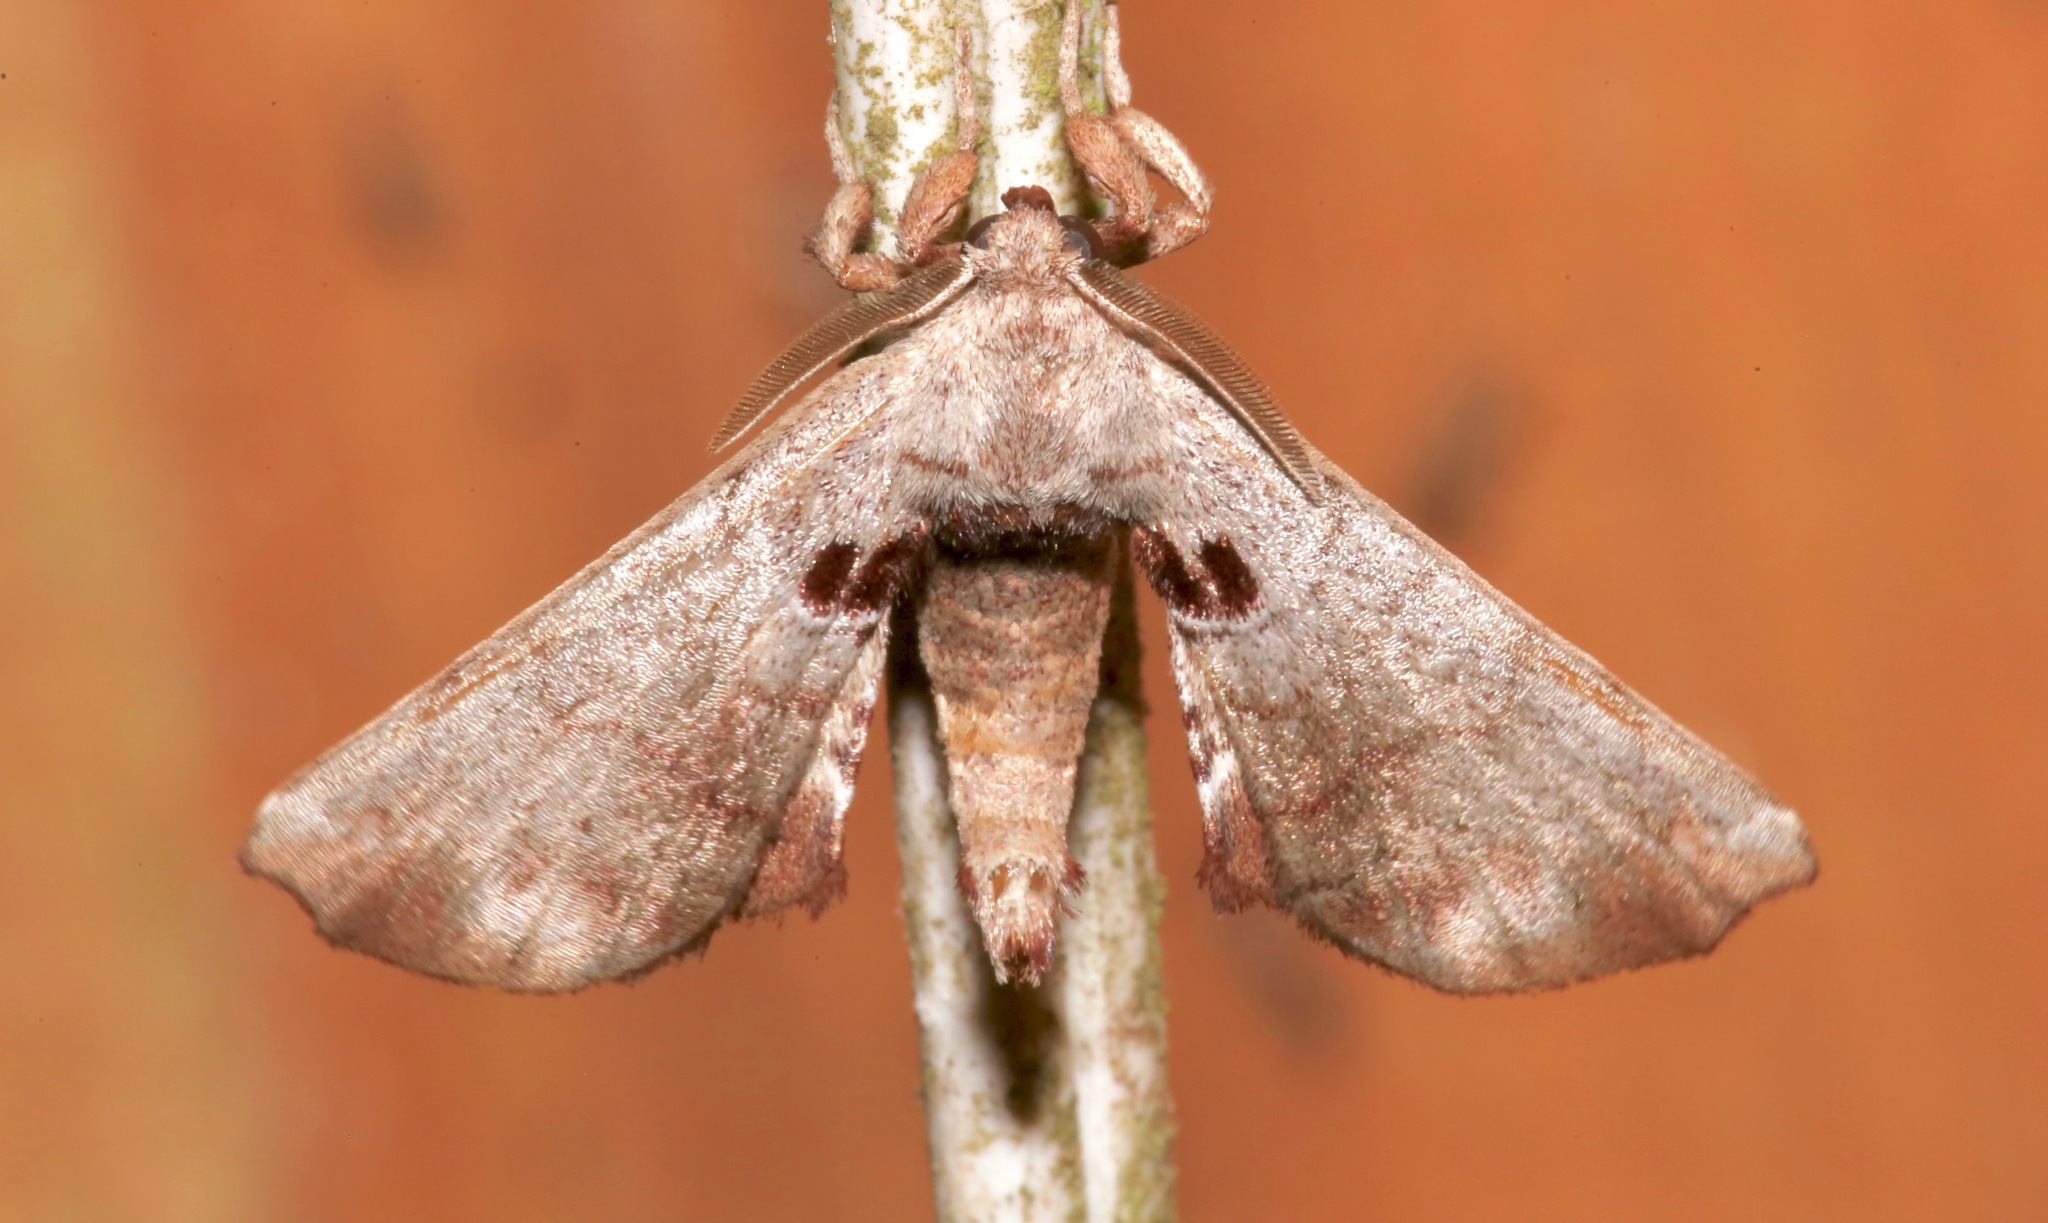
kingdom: Animalia
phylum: Arthropoda
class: Insecta
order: Lepidoptera
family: Apatelodidae
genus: Hygrochroa
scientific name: Hygrochroa Apatelodes torrefacta
